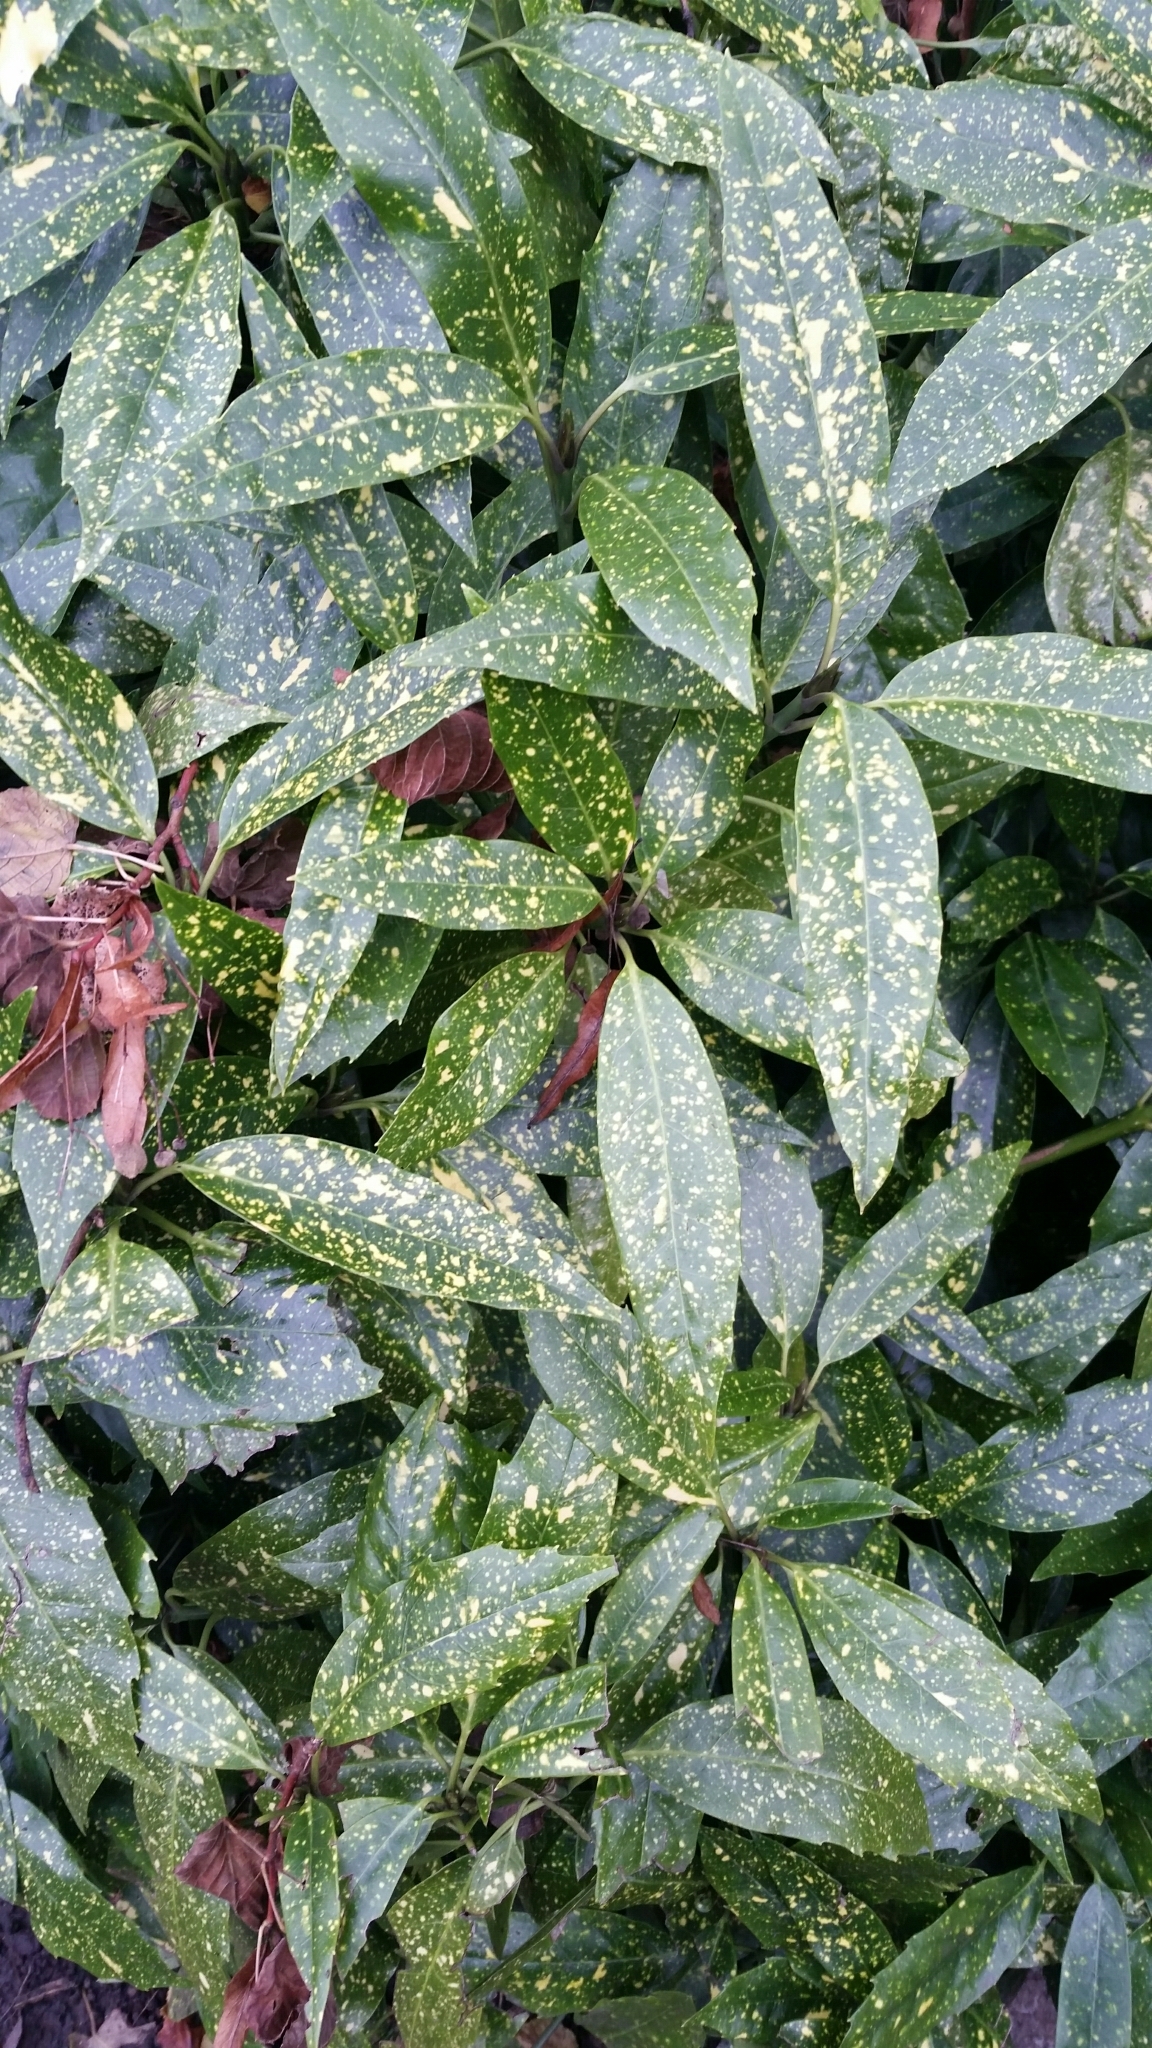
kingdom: Plantae
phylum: Tracheophyta
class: Magnoliopsida
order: Garryales
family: Garryaceae
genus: Aucuba
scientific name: Aucuba japonica
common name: Spotted-laurel
